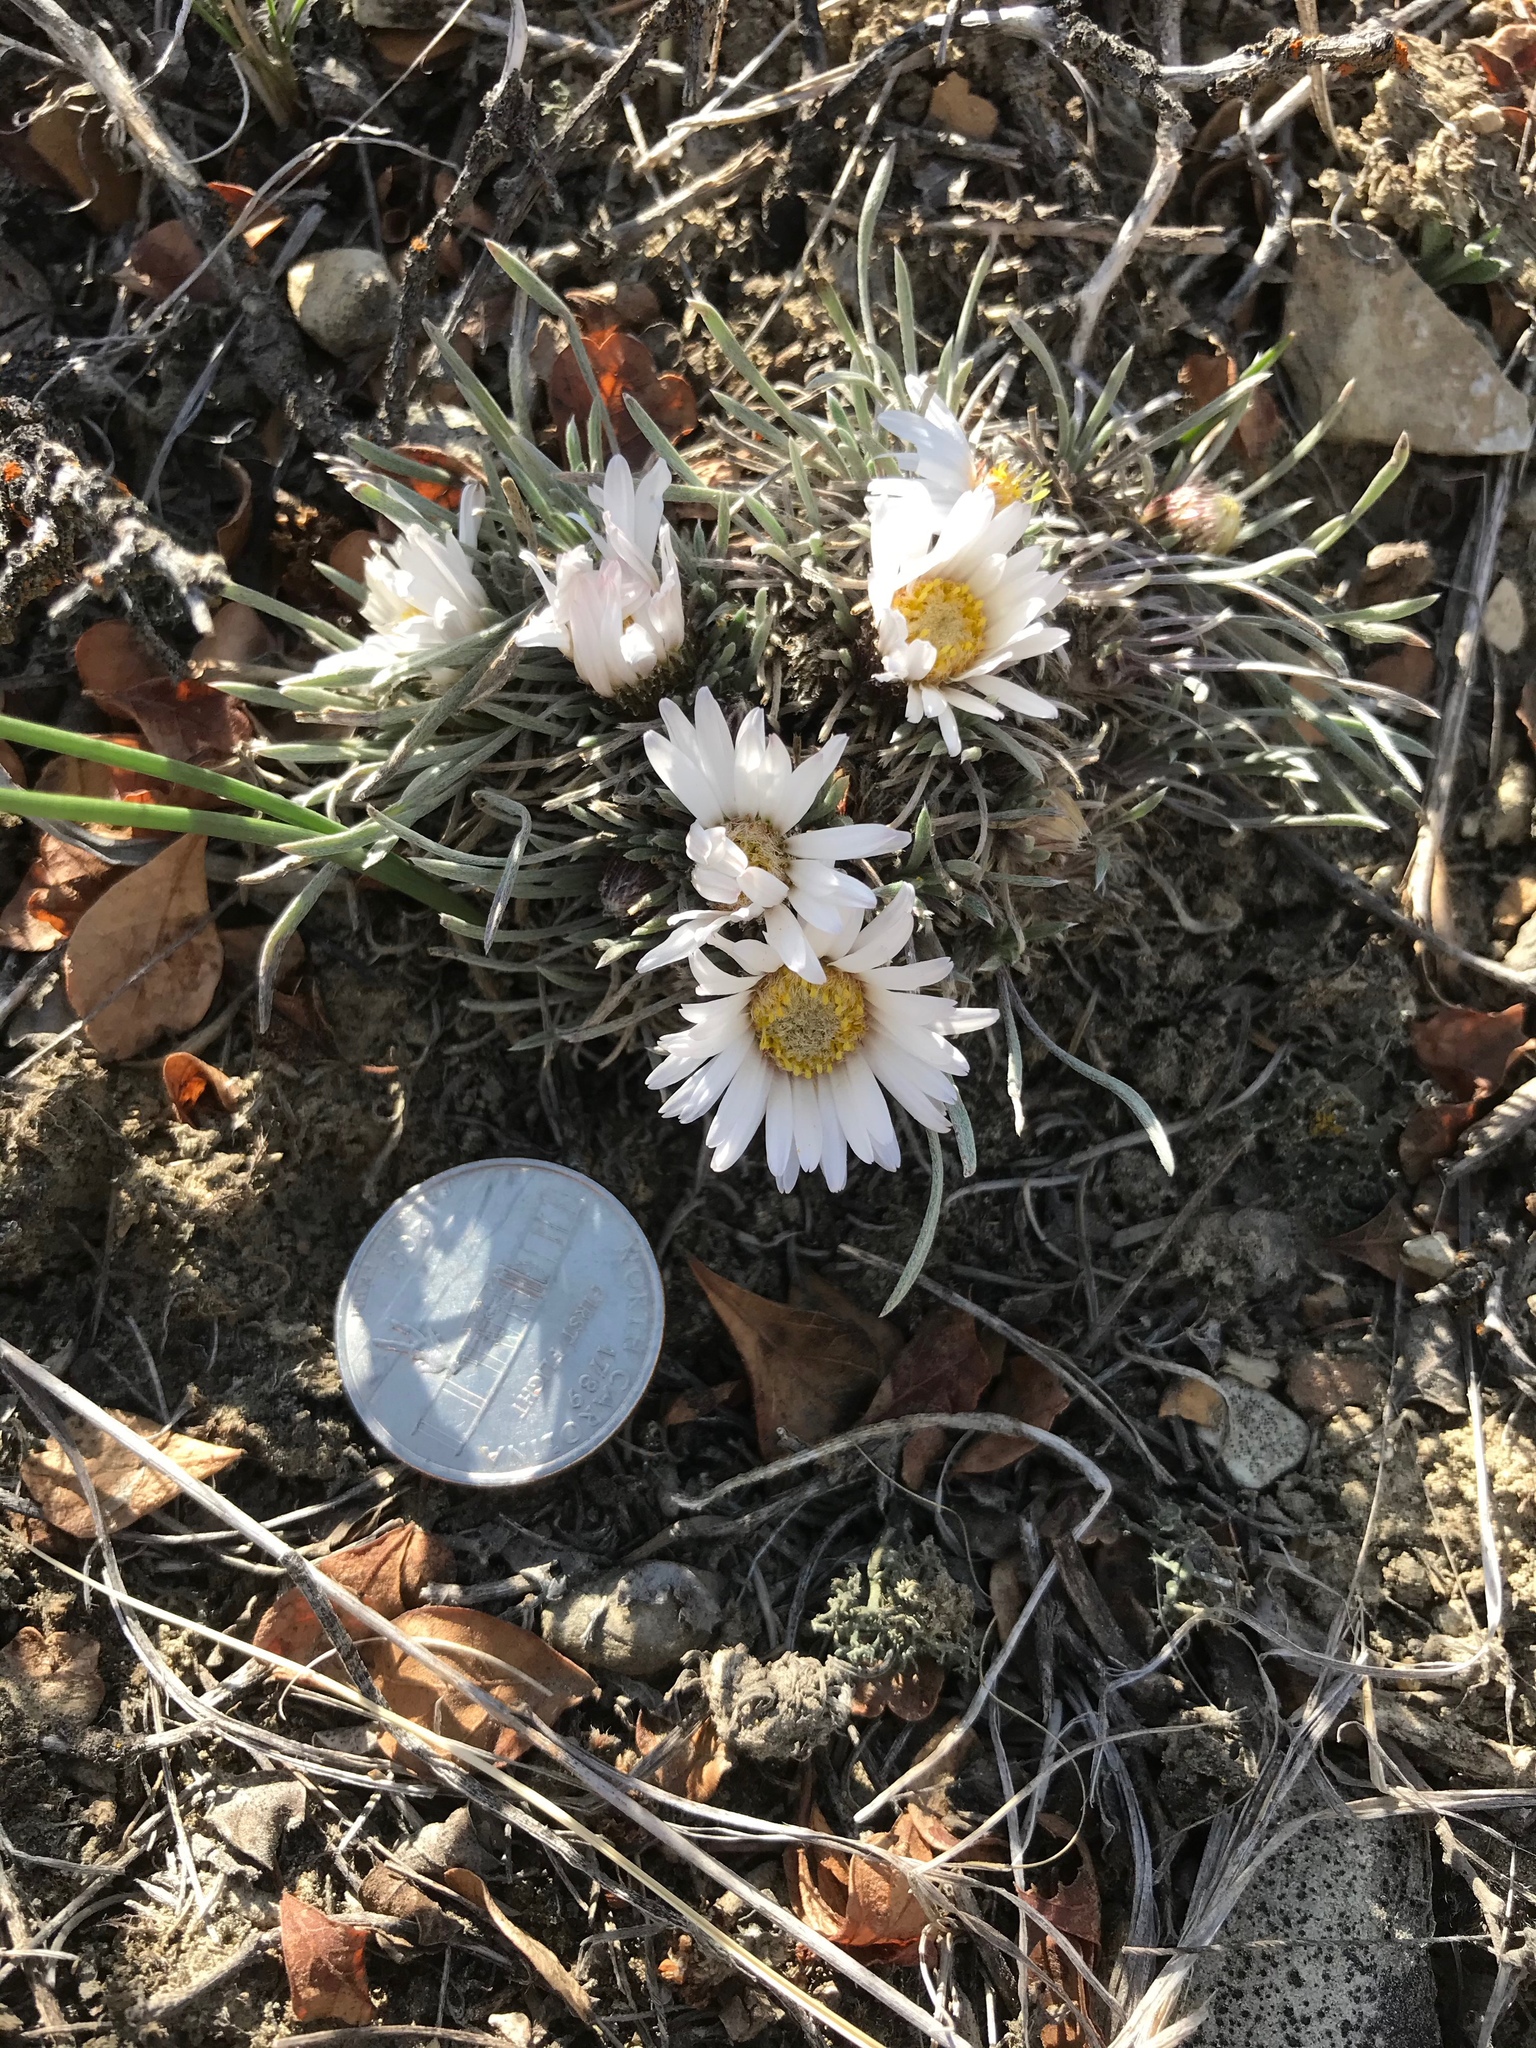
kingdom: Plantae
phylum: Tracheophyta
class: Magnoliopsida
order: Asterales
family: Asteraceae
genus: Townsendia
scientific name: Townsendia hookeri
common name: Hooker's townsend daisy
